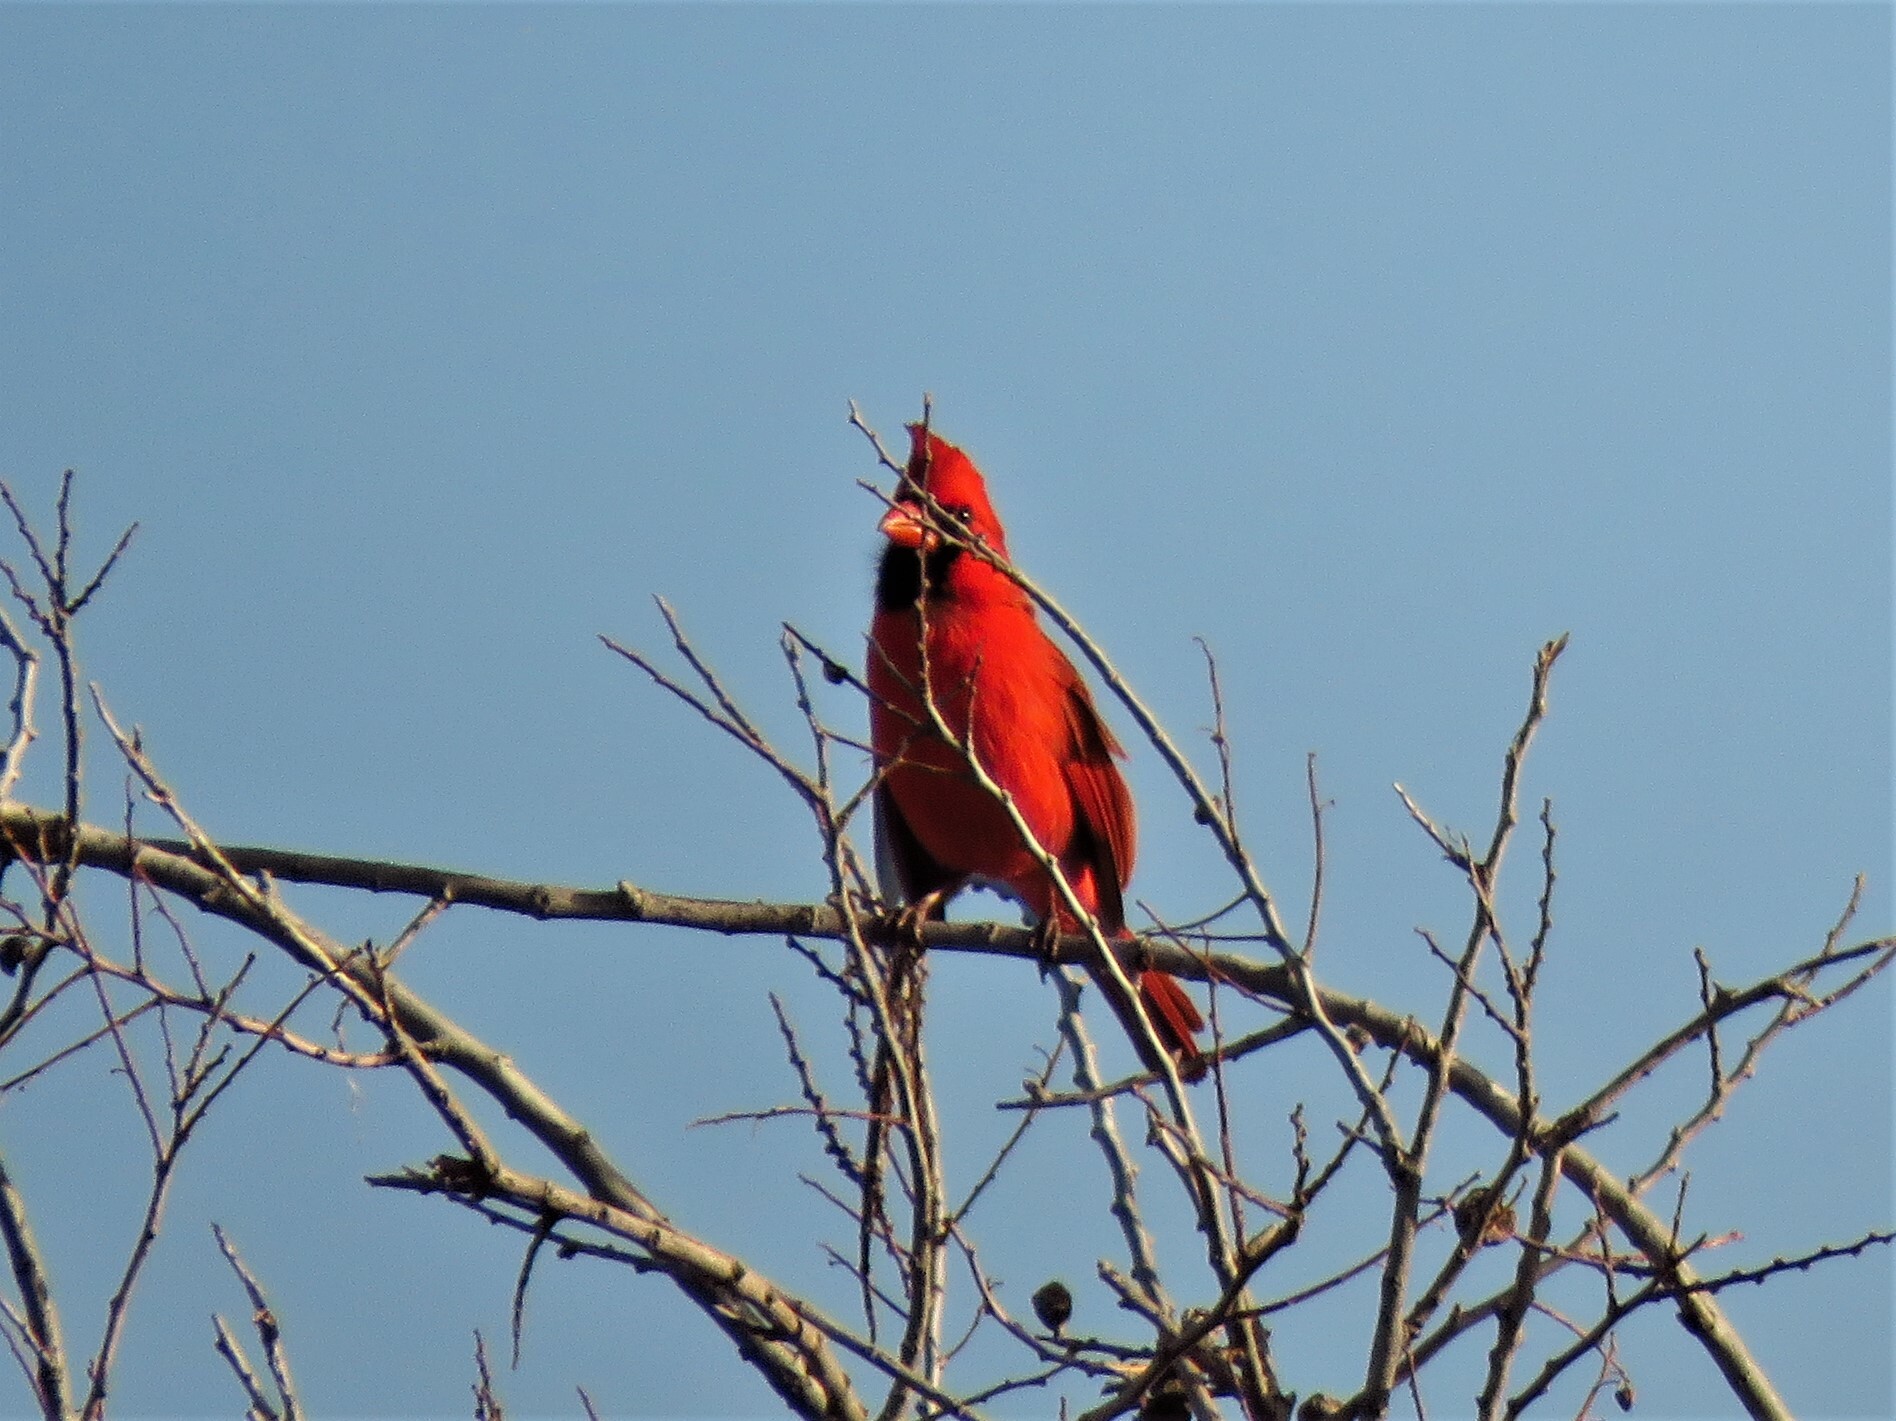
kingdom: Animalia
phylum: Chordata
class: Aves
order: Passeriformes
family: Cardinalidae
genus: Cardinalis
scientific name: Cardinalis cardinalis
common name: Northern cardinal
